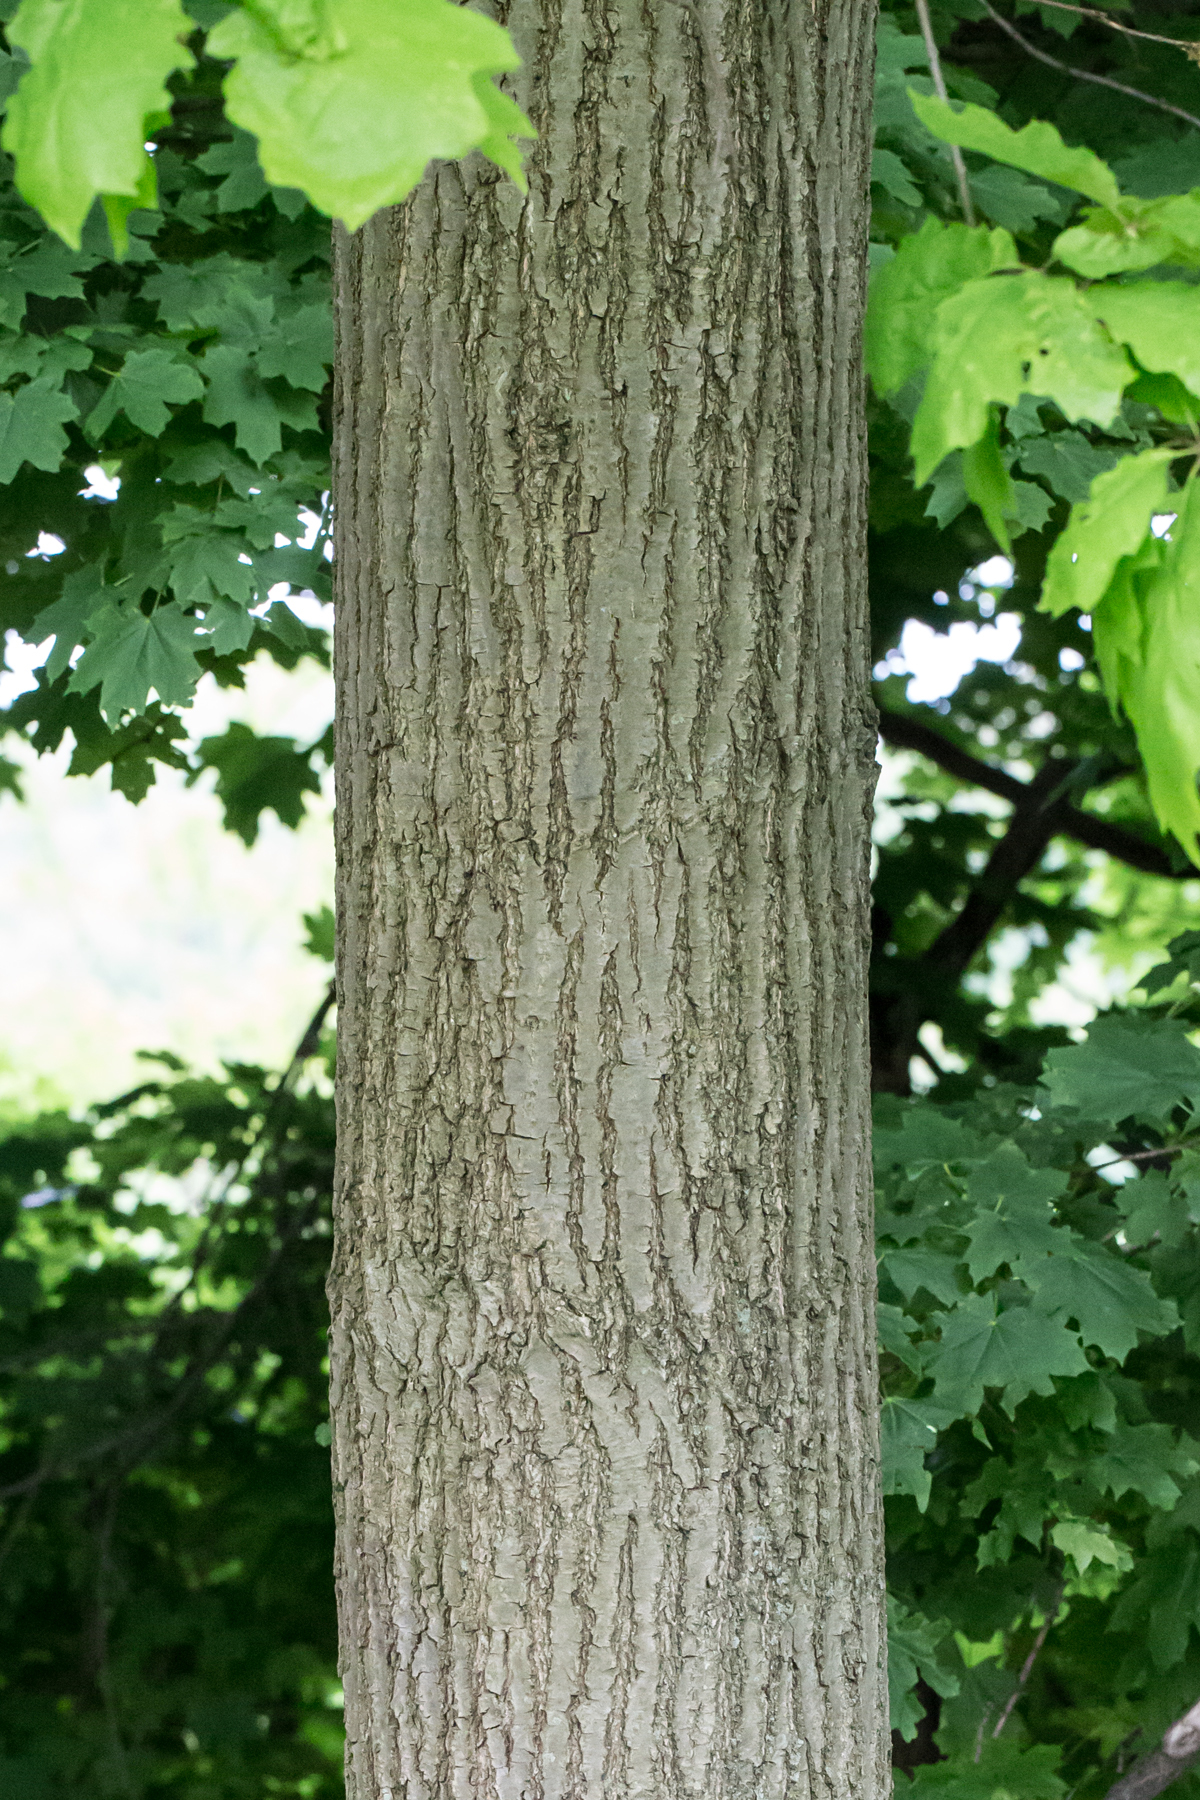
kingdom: Plantae
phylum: Tracheophyta
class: Magnoliopsida
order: Fagales
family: Fagaceae
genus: Quercus
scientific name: Quercus rubra
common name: Red oak
